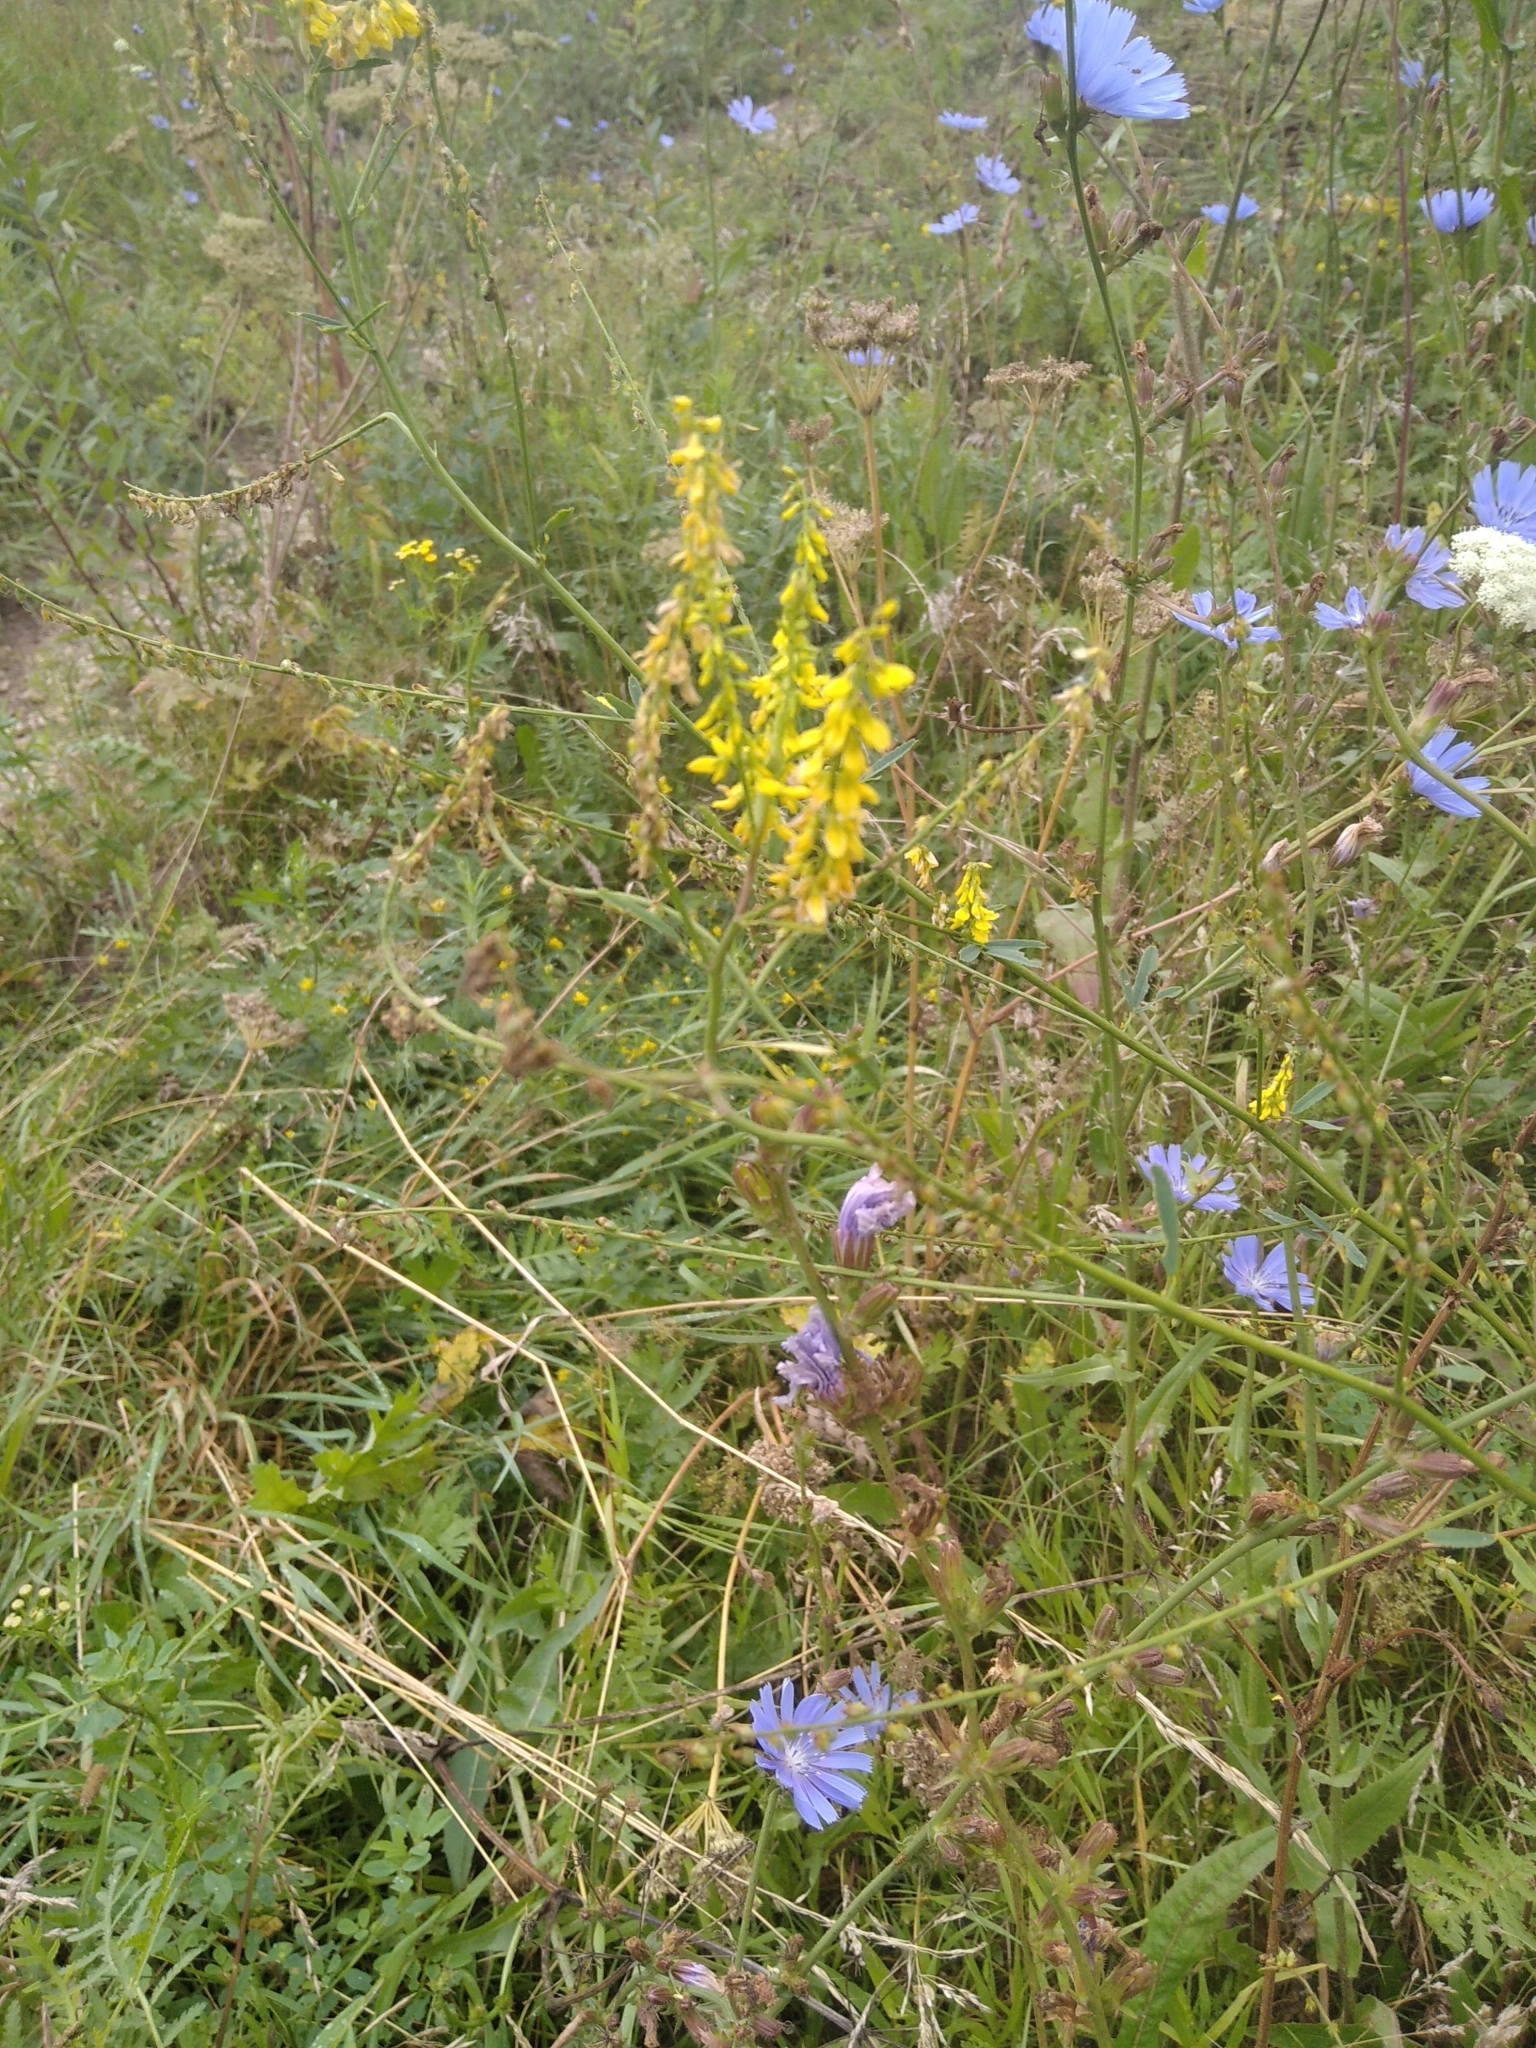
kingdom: Plantae
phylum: Tracheophyta
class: Magnoliopsida
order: Fabales
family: Fabaceae
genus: Melilotus
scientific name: Melilotus officinalis
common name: Sweetclover
